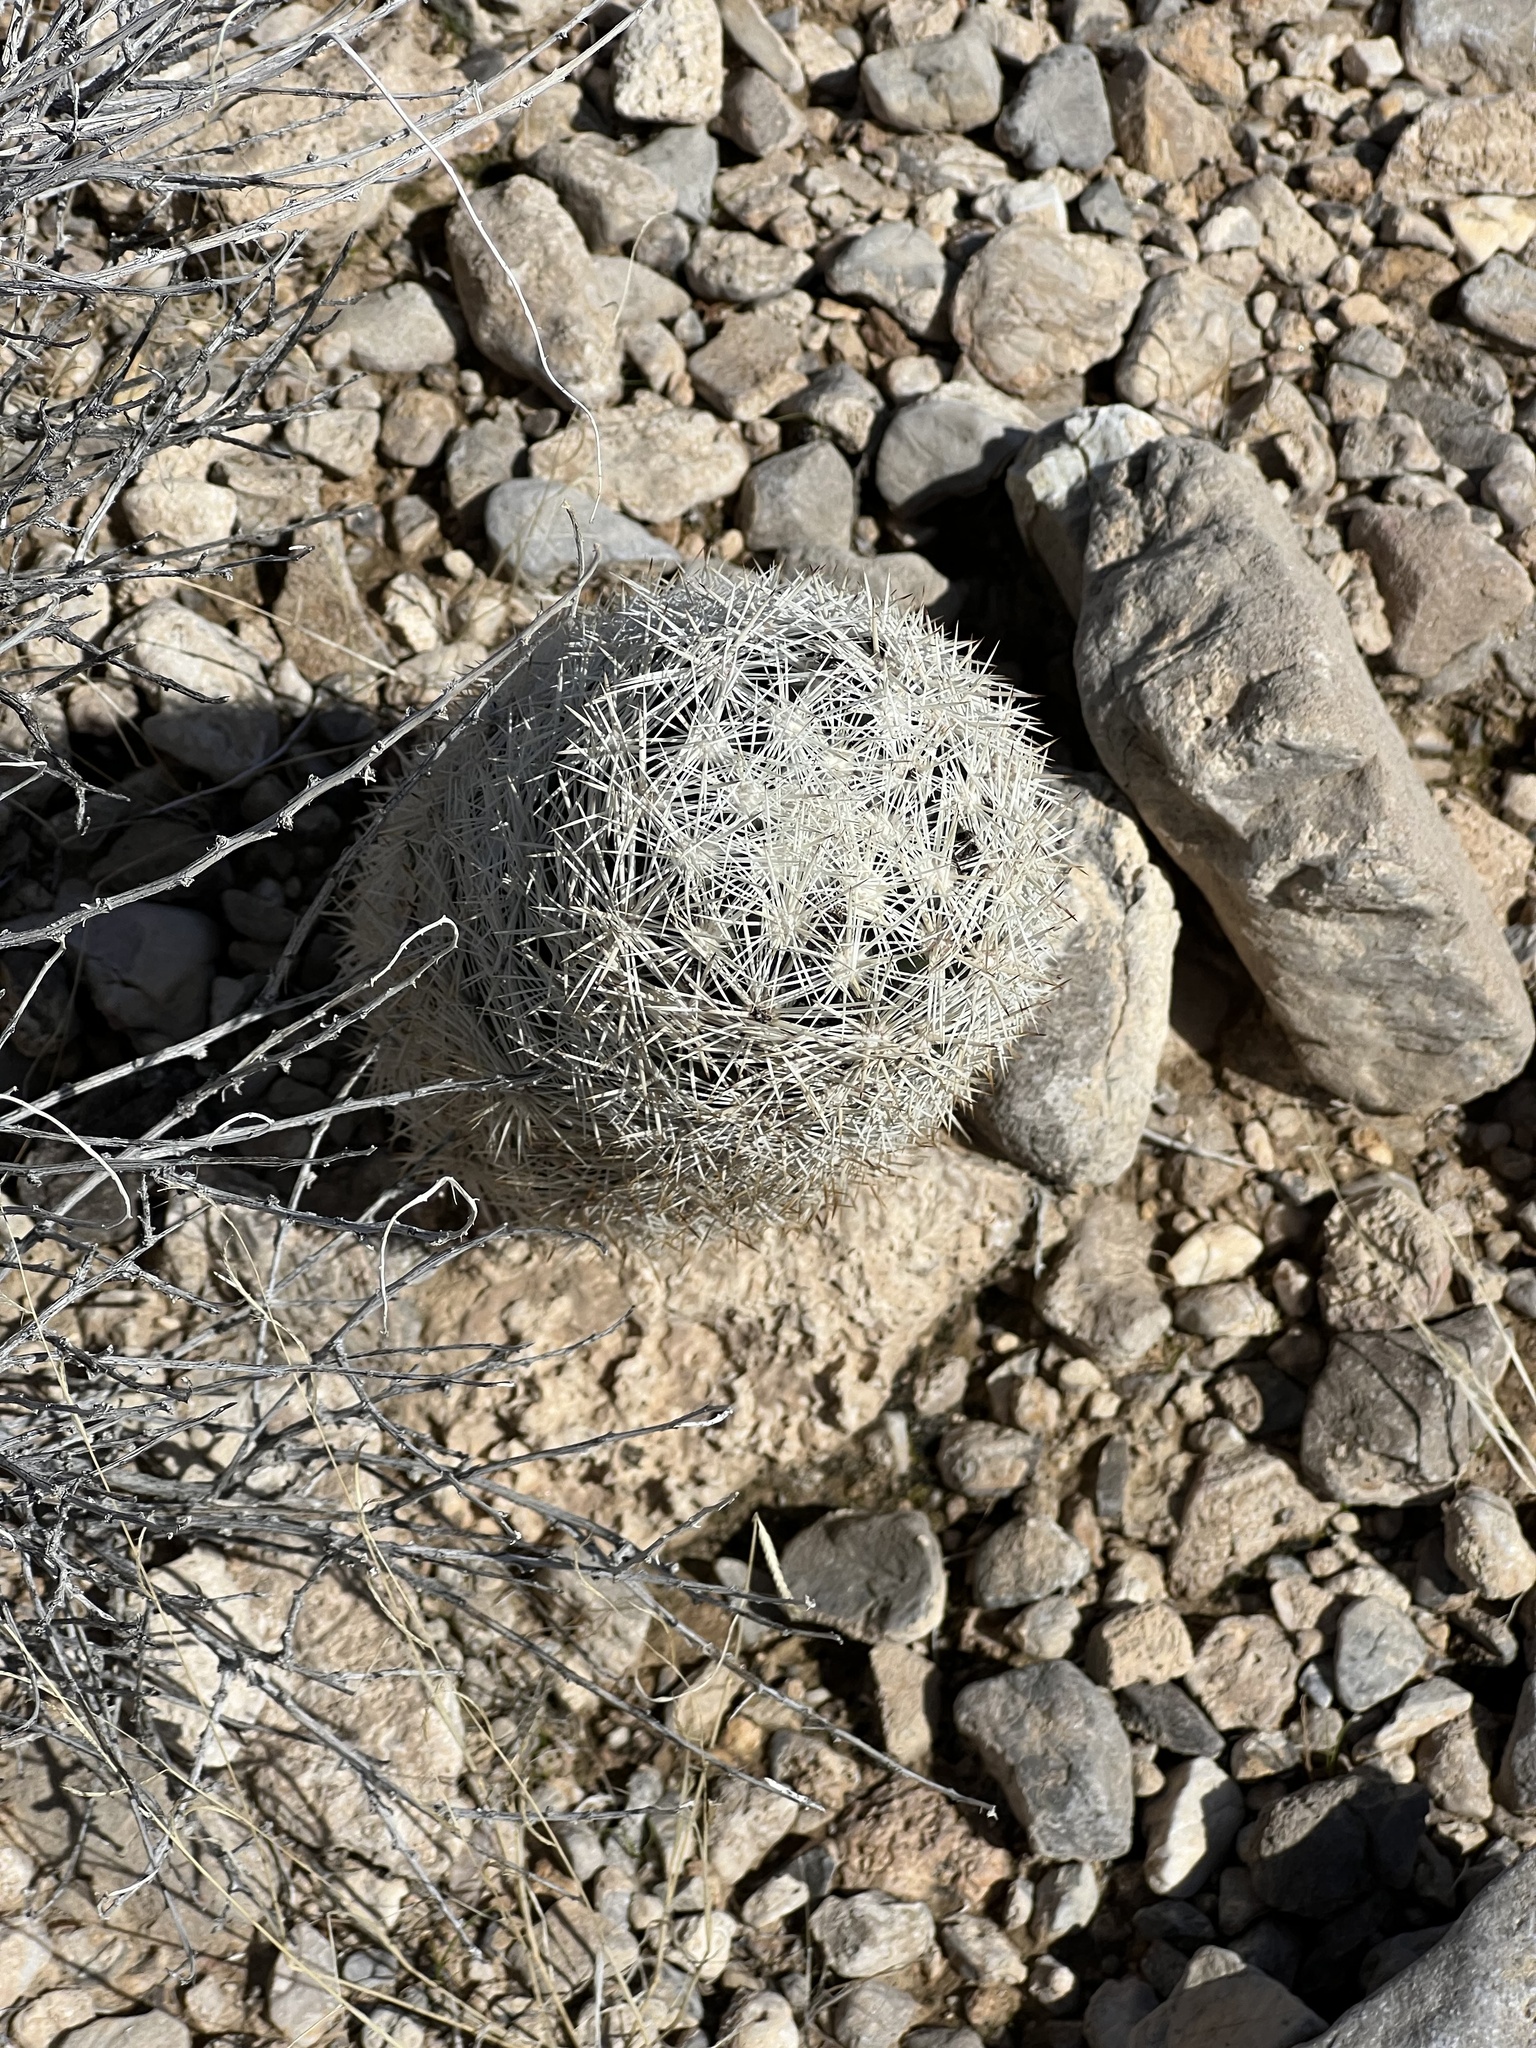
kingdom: Plantae
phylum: Tracheophyta
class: Magnoliopsida
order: Caryophyllales
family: Cactaceae
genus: Pelecyphora
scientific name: Pelecyphora dasyacantha
